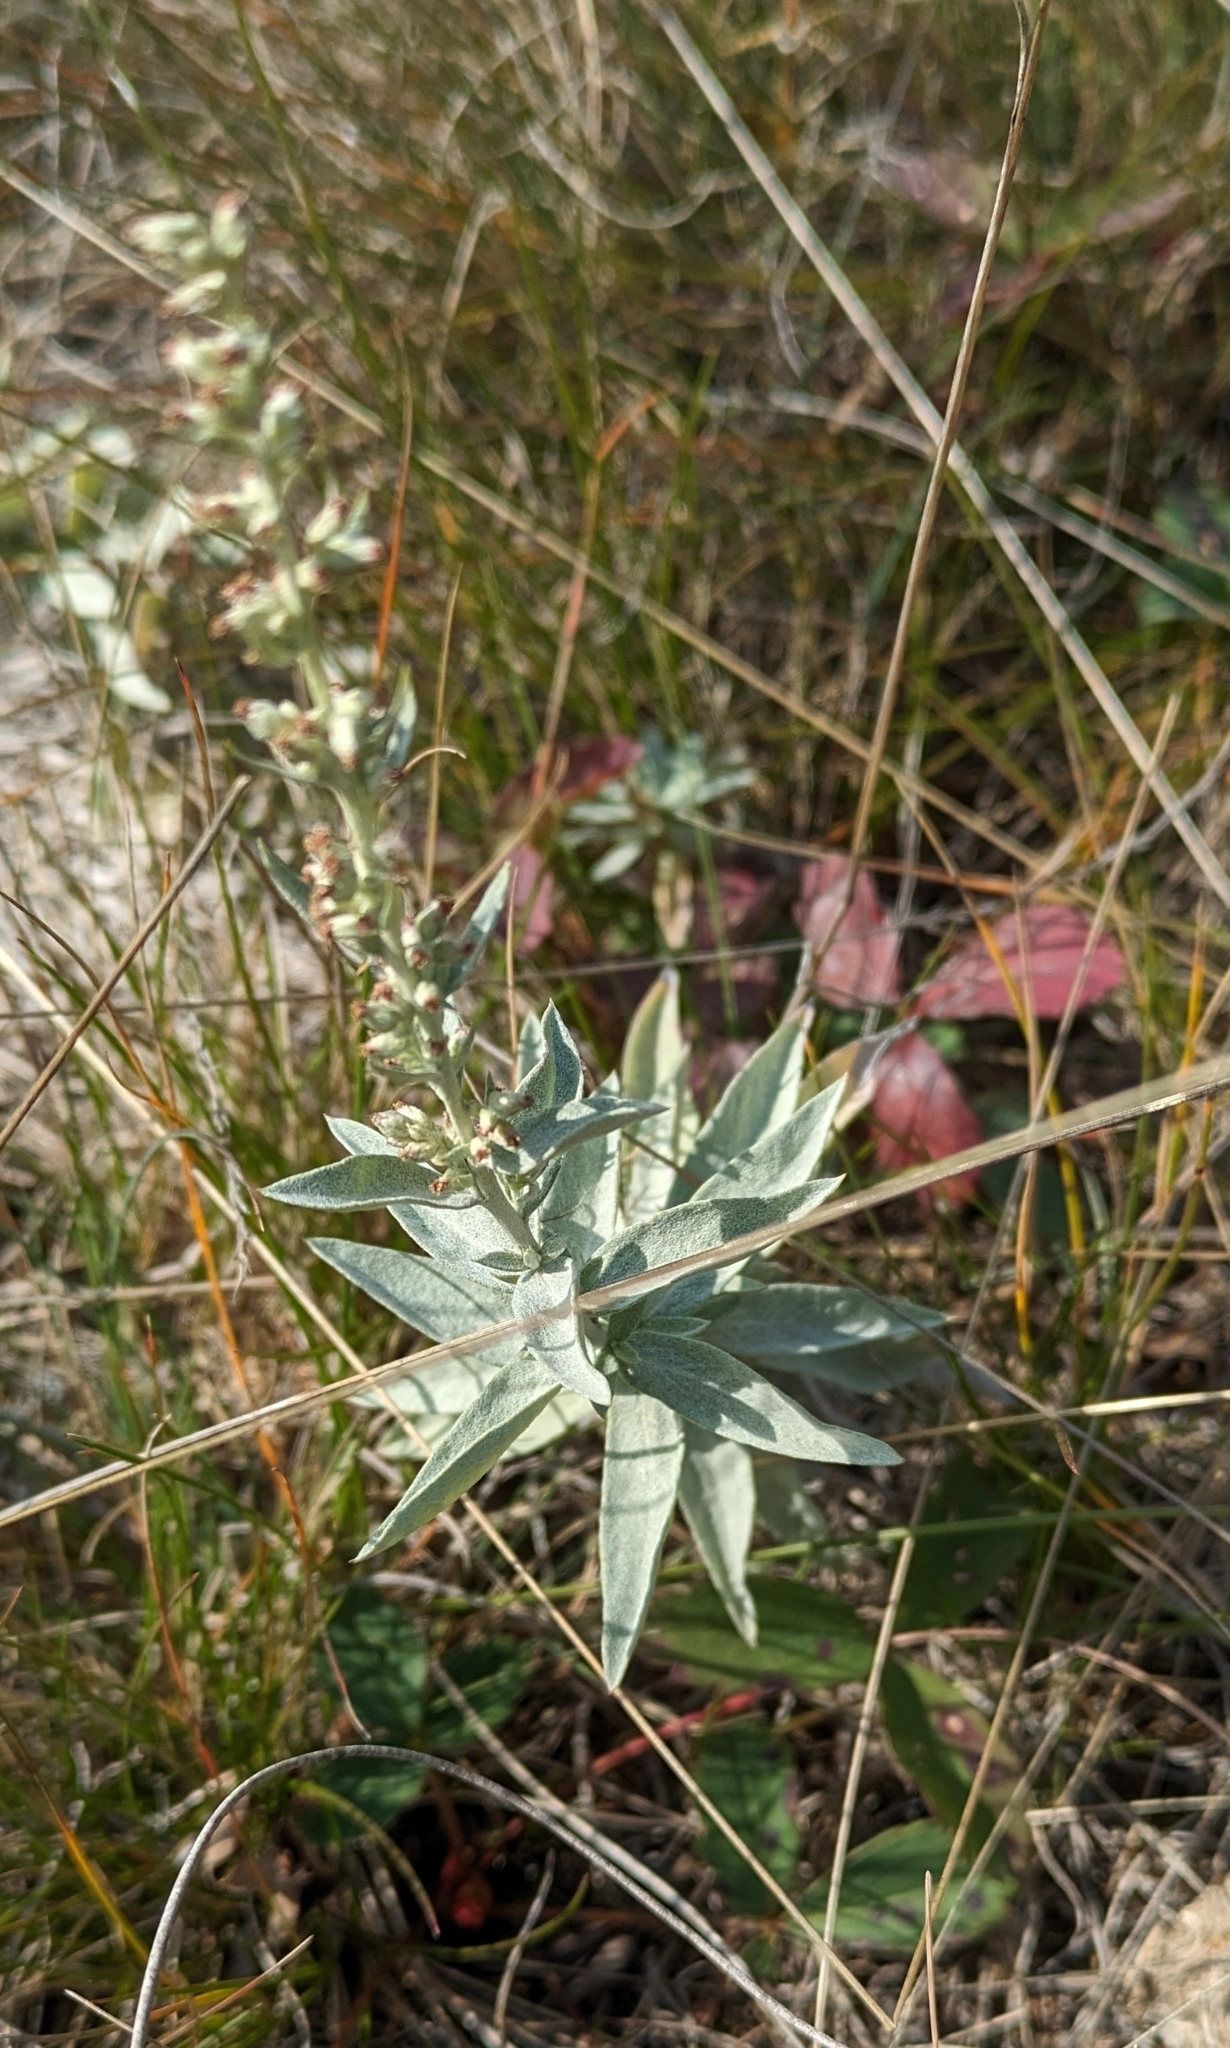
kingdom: Plantae
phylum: Tracheophyta
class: Magnoliopsida
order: Asterales
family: Asteraceae
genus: Artemisia
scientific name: Artemisia ludoviciana
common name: Western mugwort
